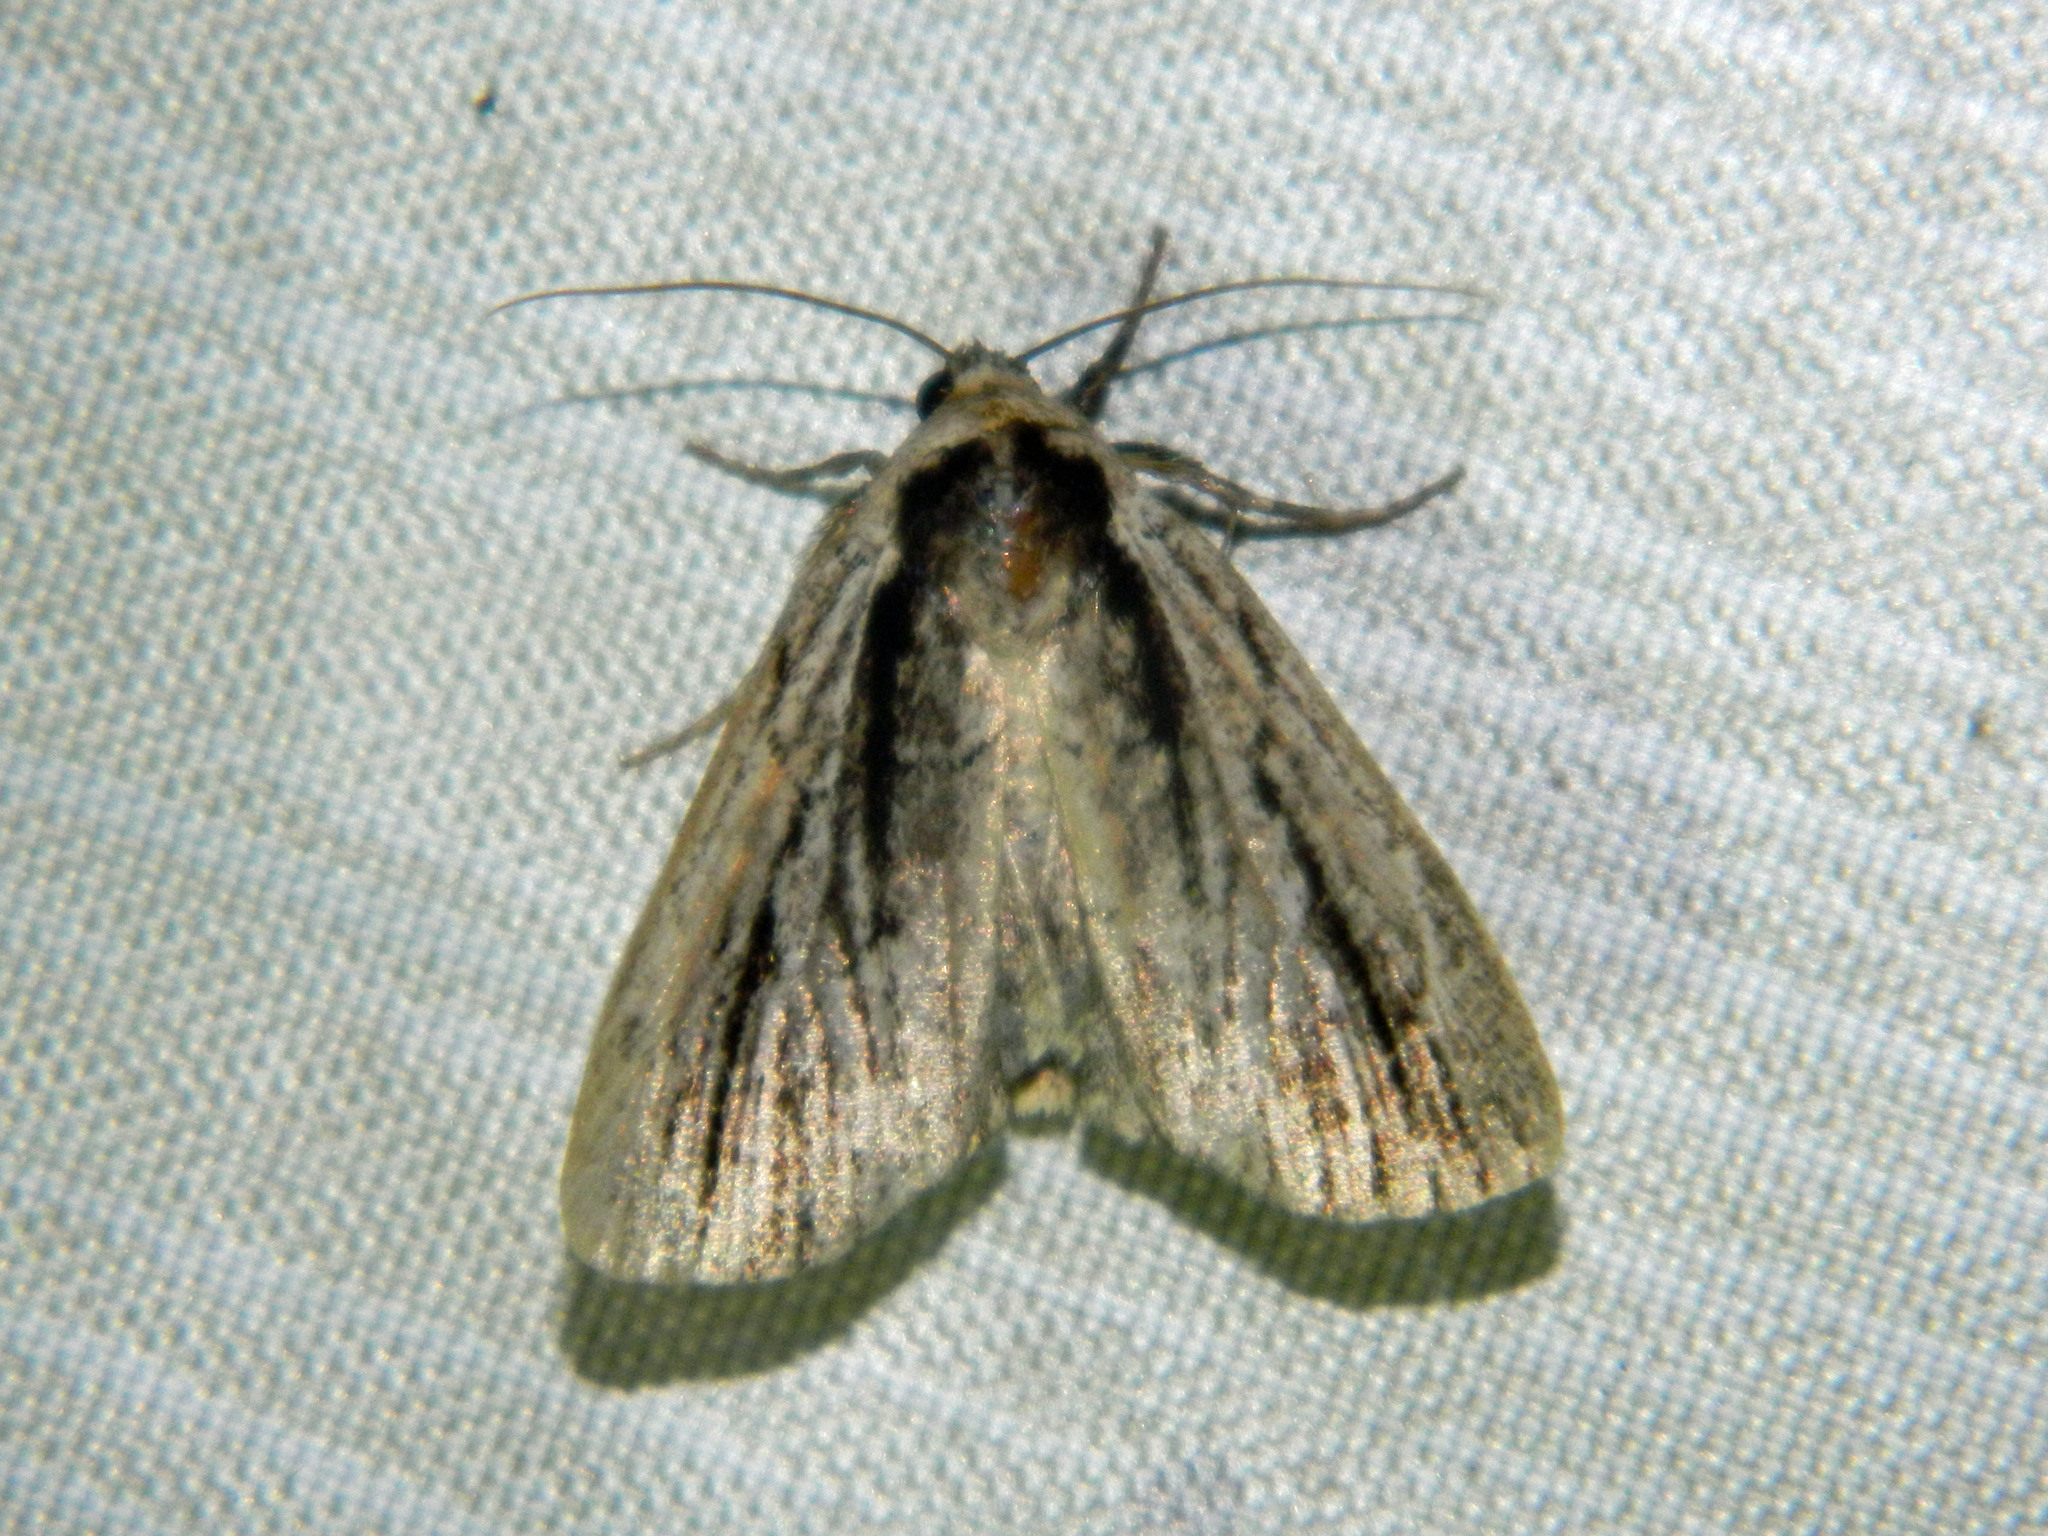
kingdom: Animalia
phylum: Arthropoda
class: Insecta
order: Lepidoptera
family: Noctuidae
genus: Sympistis
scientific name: Sympistis badistriga
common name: Brown-lined sallow moth
